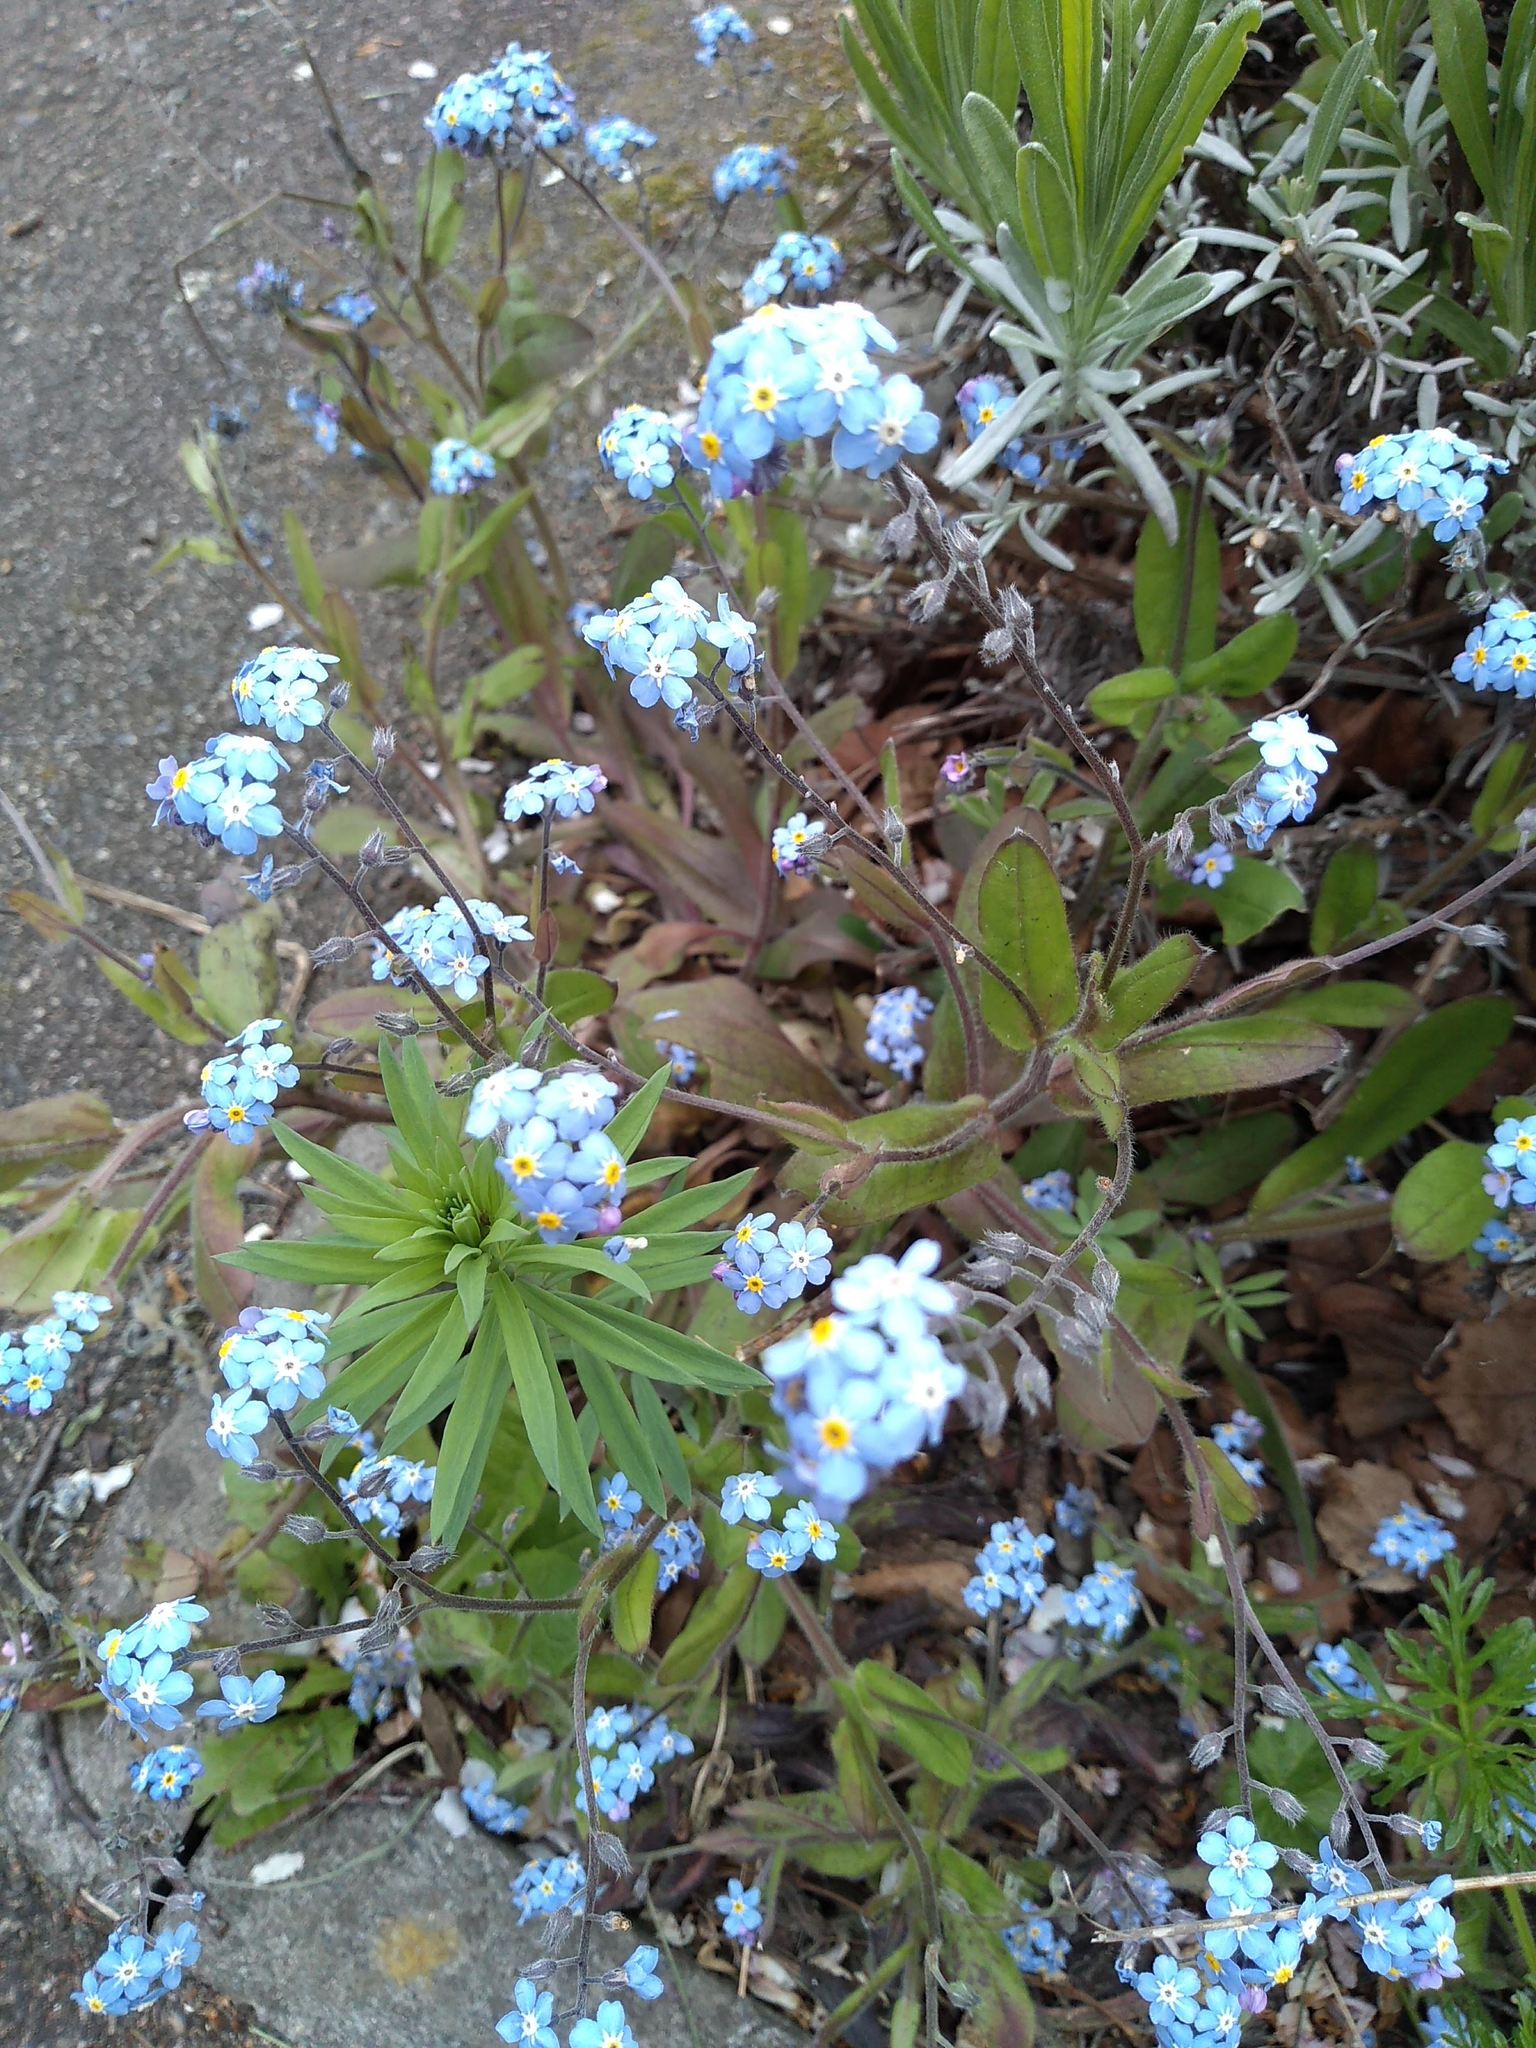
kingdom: Plantae
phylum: Tracheophyta
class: Magnoliopsida
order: Boraginales
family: Boraginaceae
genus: Myosotis
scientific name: Myosotis sylvatica
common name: Wood forget-me-not
